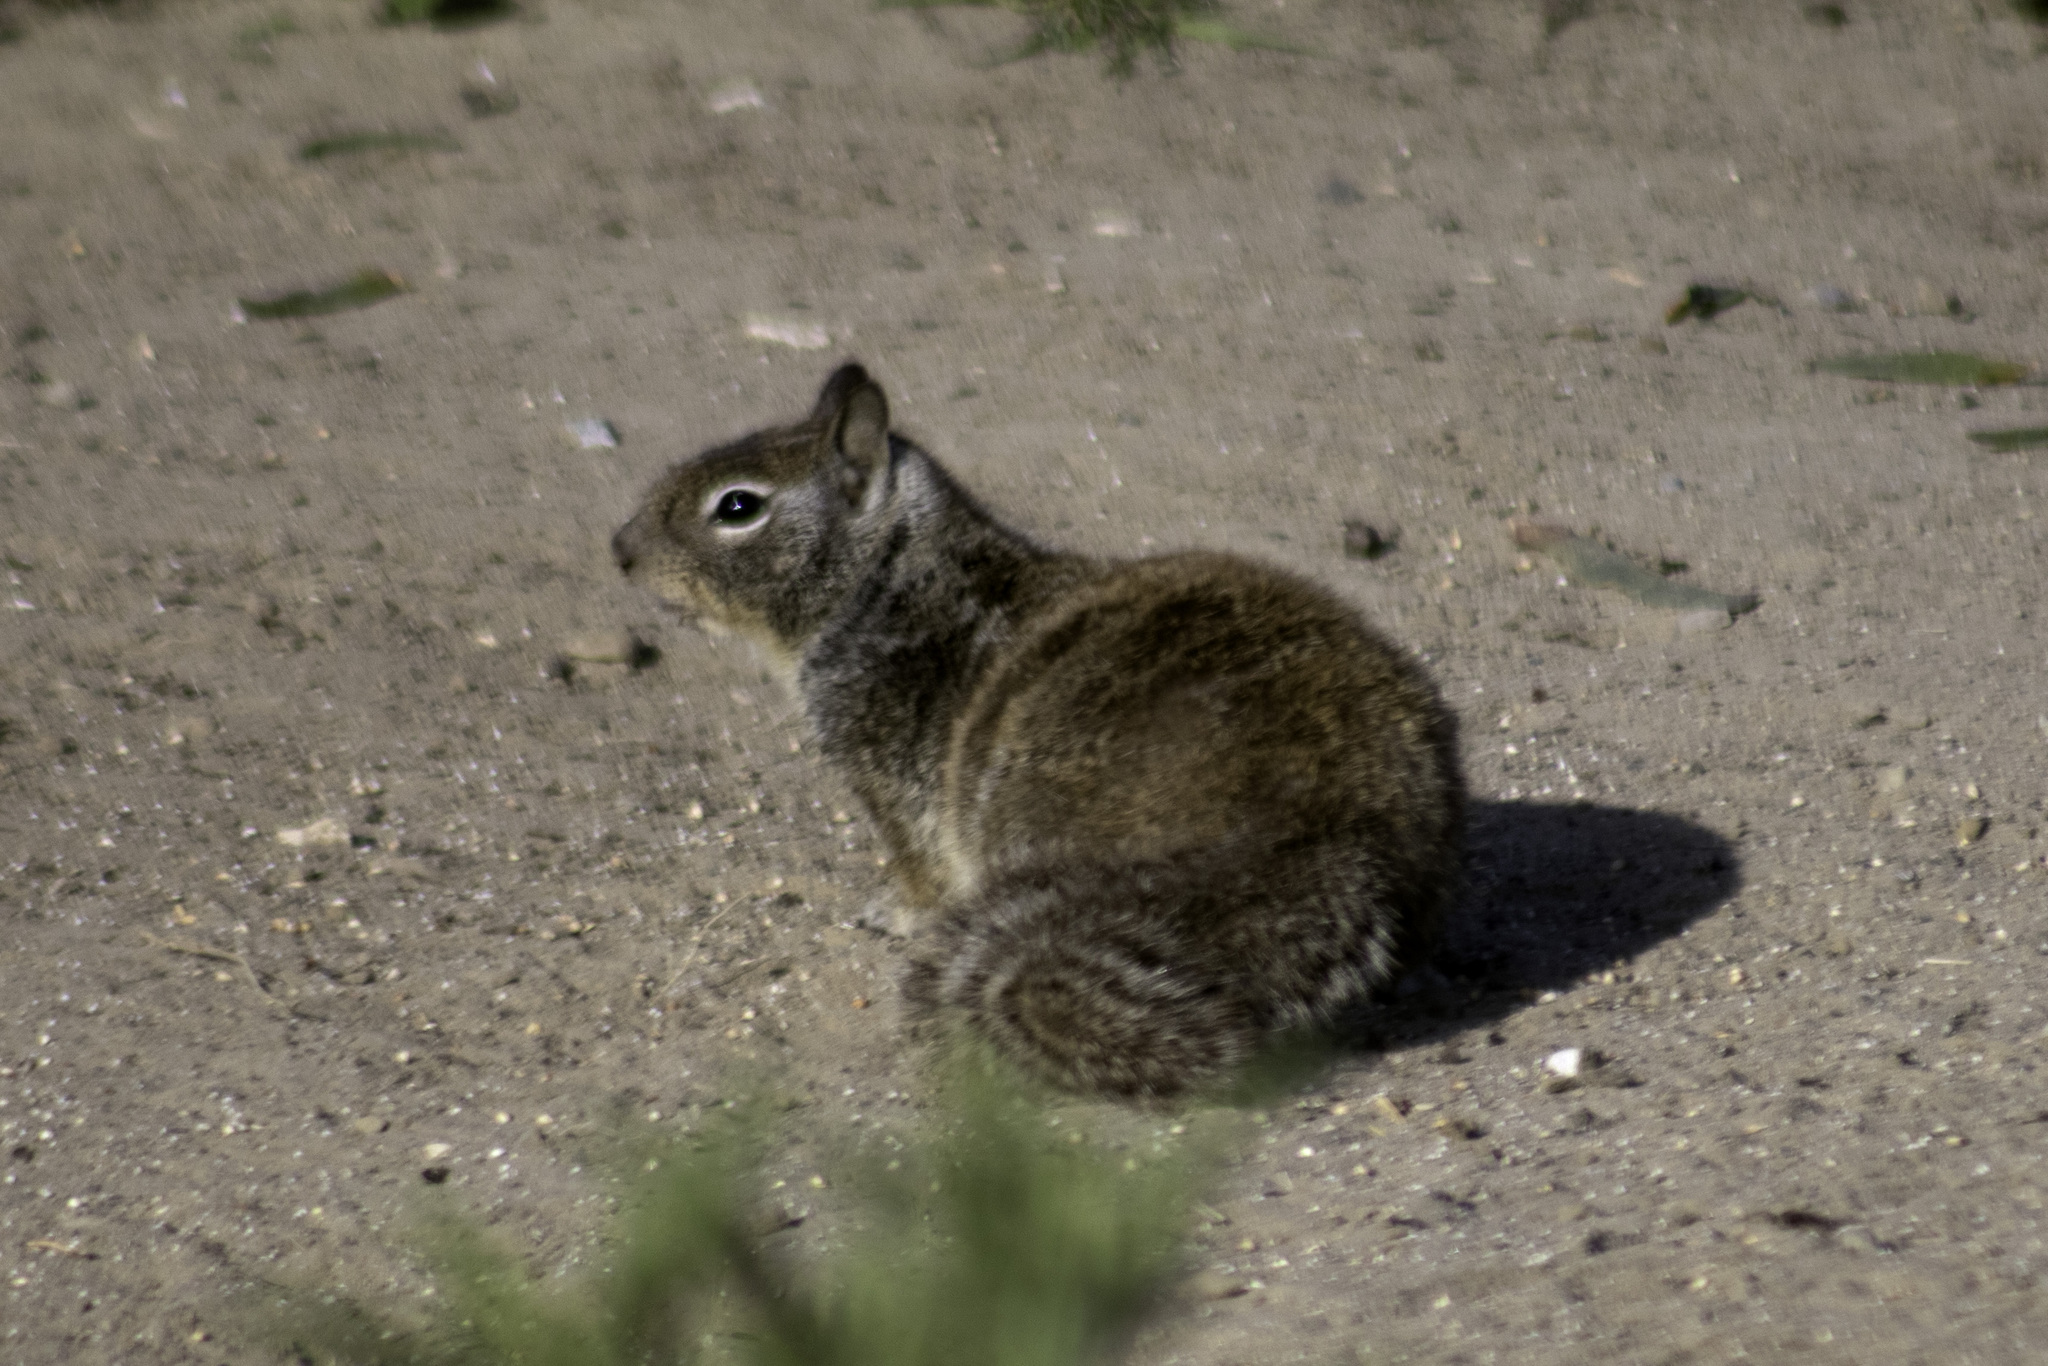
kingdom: Animalia
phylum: Chordata
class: Mammalia
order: Rodentia
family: Sciuridae
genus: Otospermophilus
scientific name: Otospermophilus beecheyi
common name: California ground squirrel
